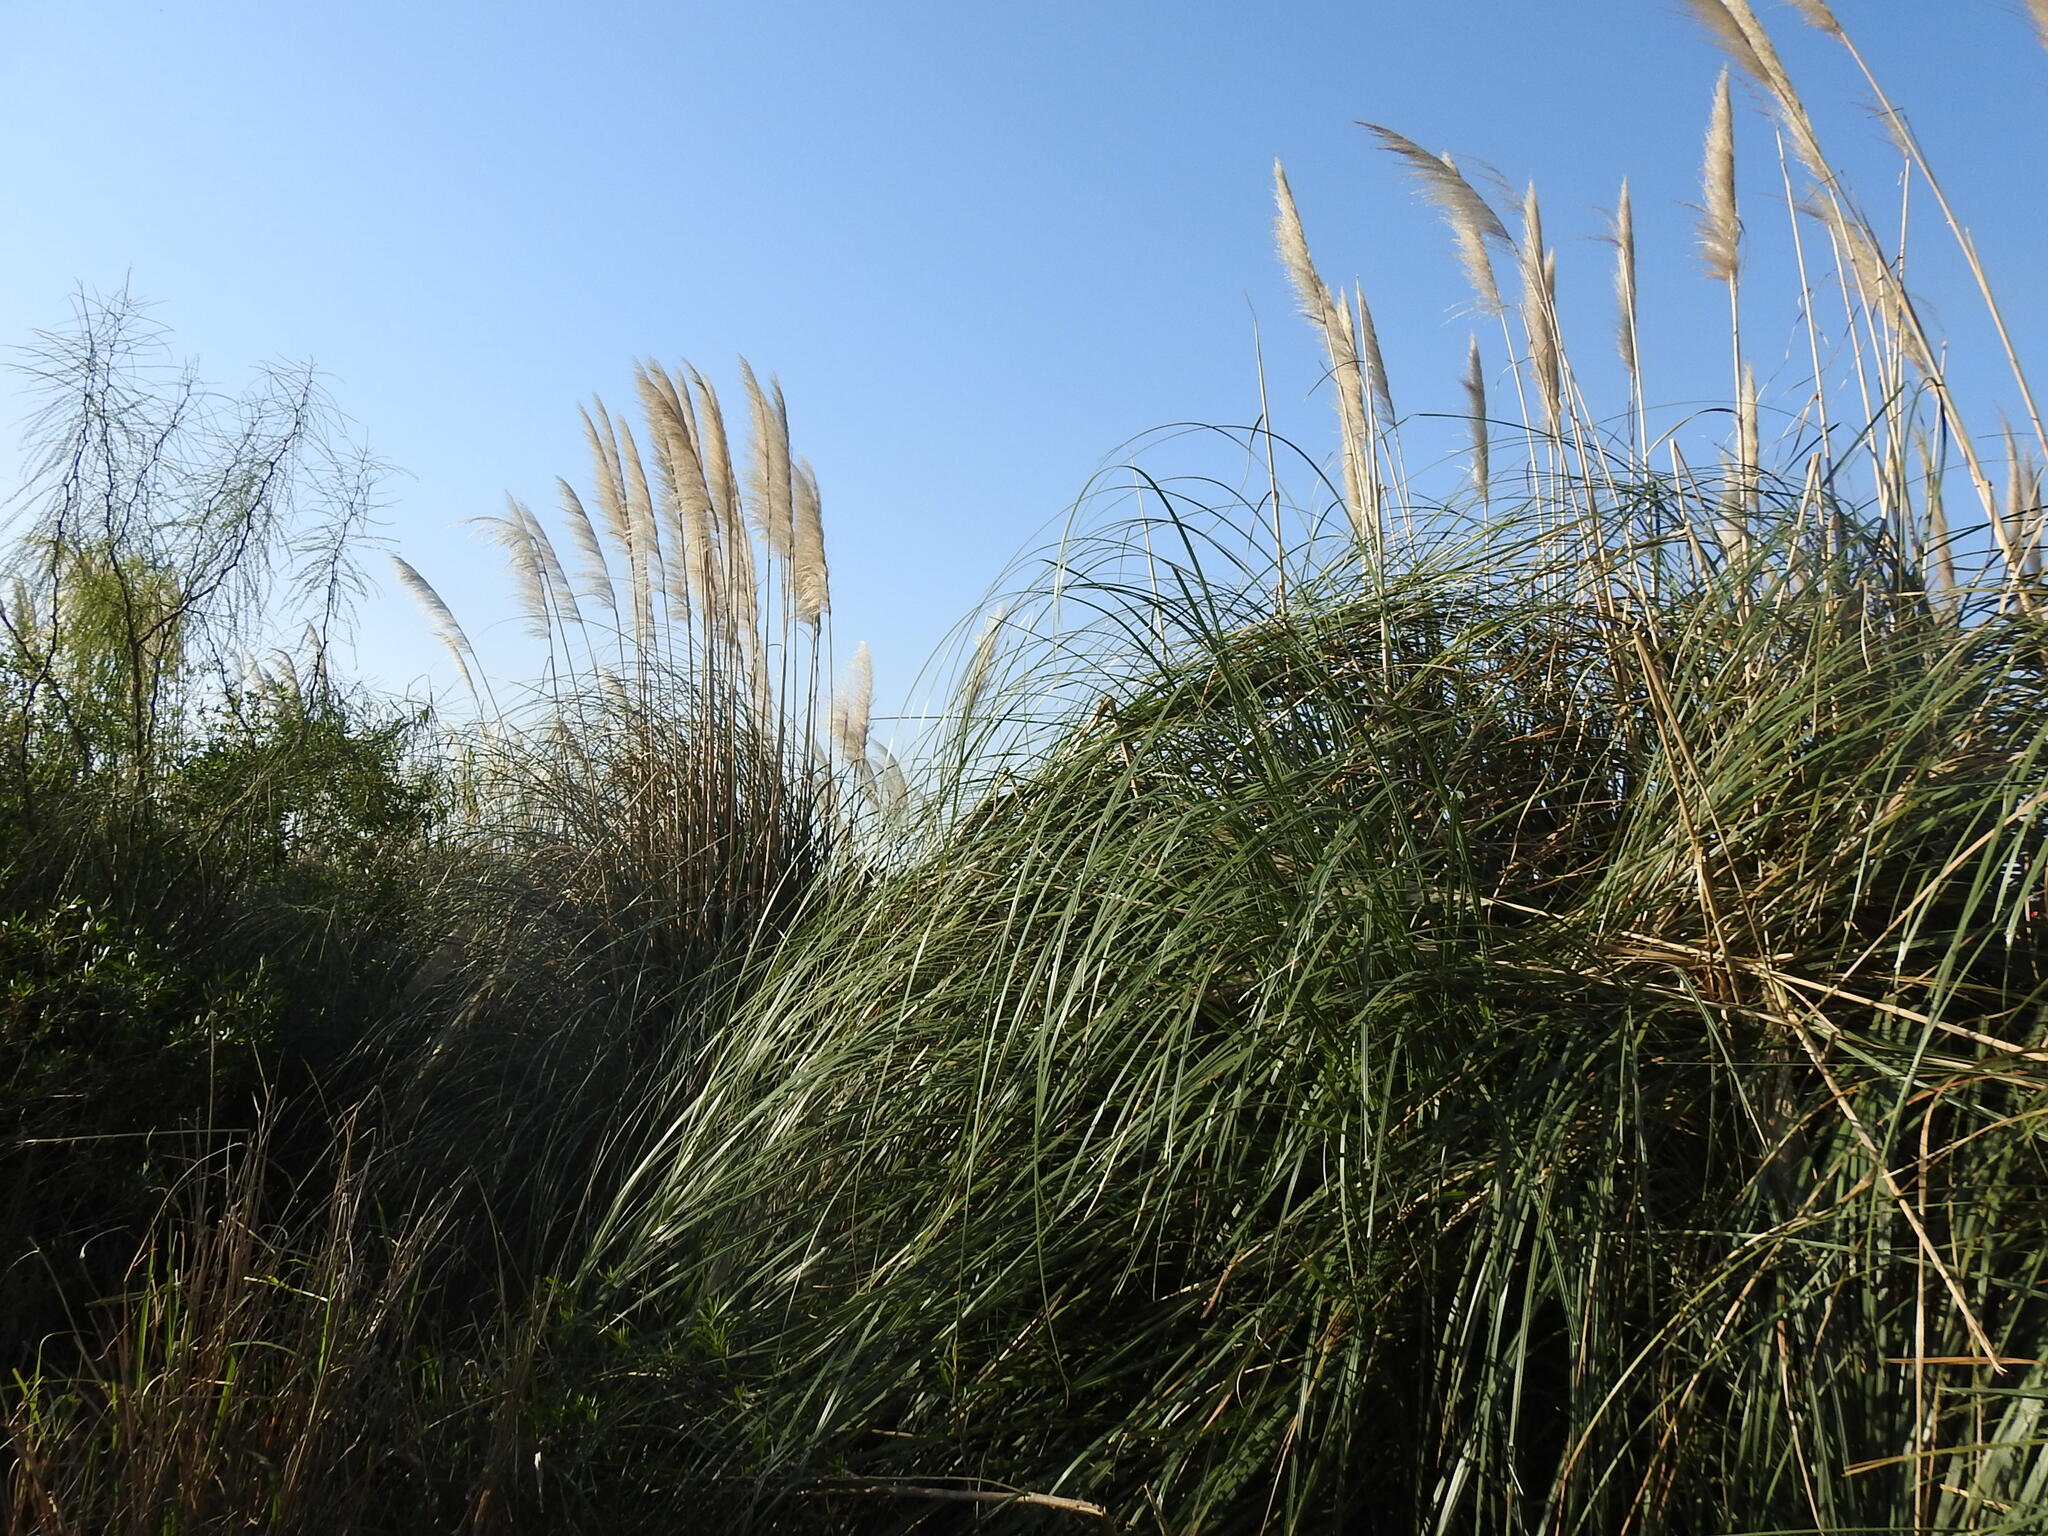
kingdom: Plantae
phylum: Tracheophyta
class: Liliopsida
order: Poales
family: Poaceae
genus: Cortaderia
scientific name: Cortaderia selloana
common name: Uruguayan pampas grass
